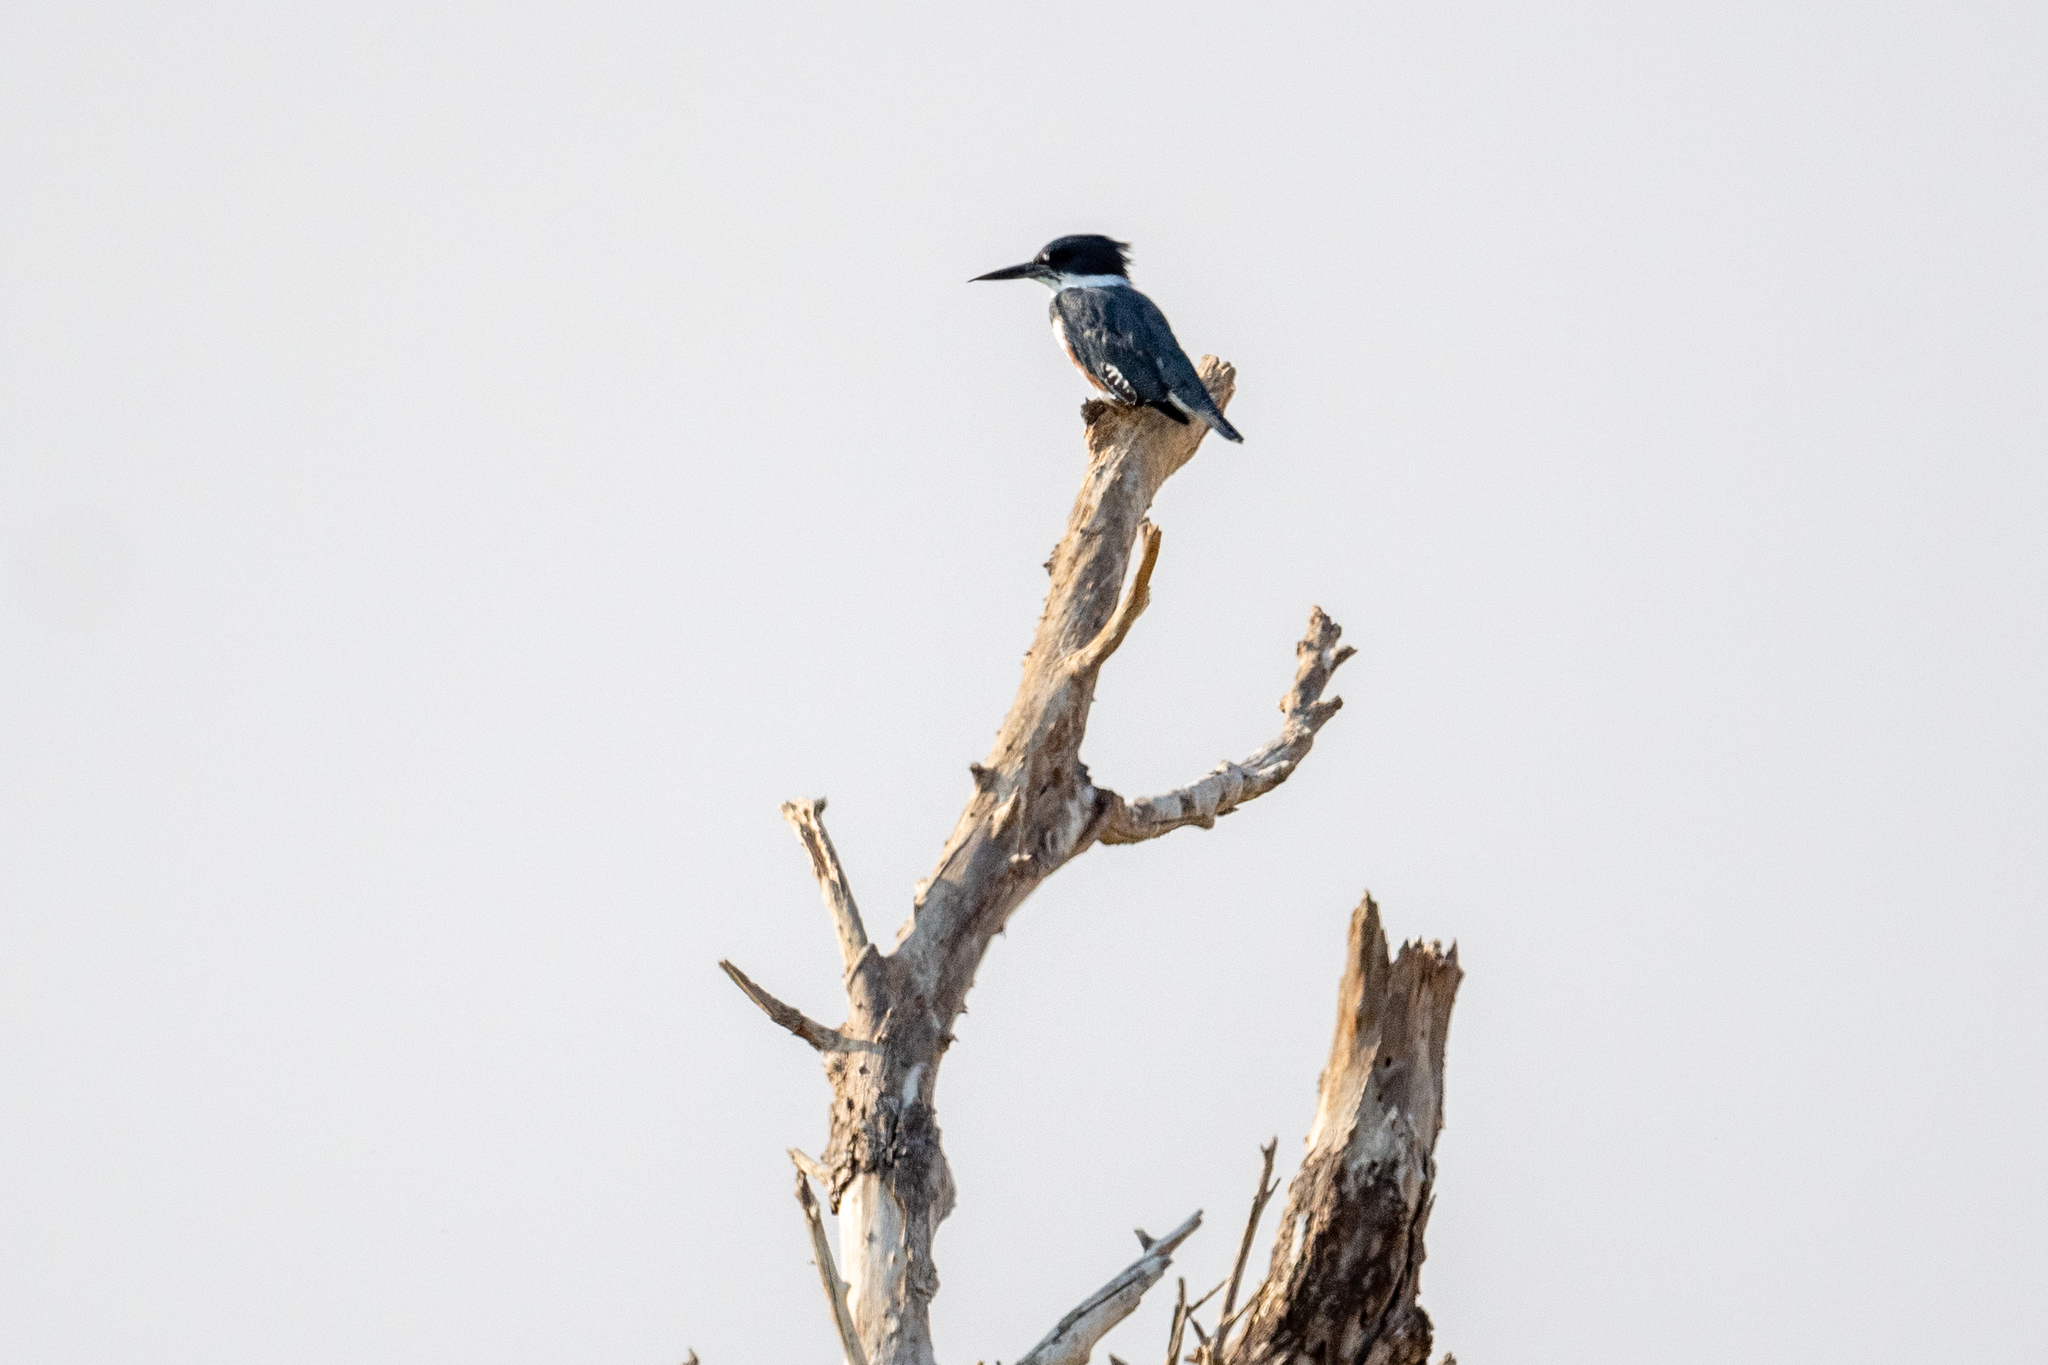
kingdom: Animalia
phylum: Chordata
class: Aves
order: Coraciiformes
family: Alcedinidae
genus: Megaceryle
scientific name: Megaceryle alcyon
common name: Belted kingfisher
